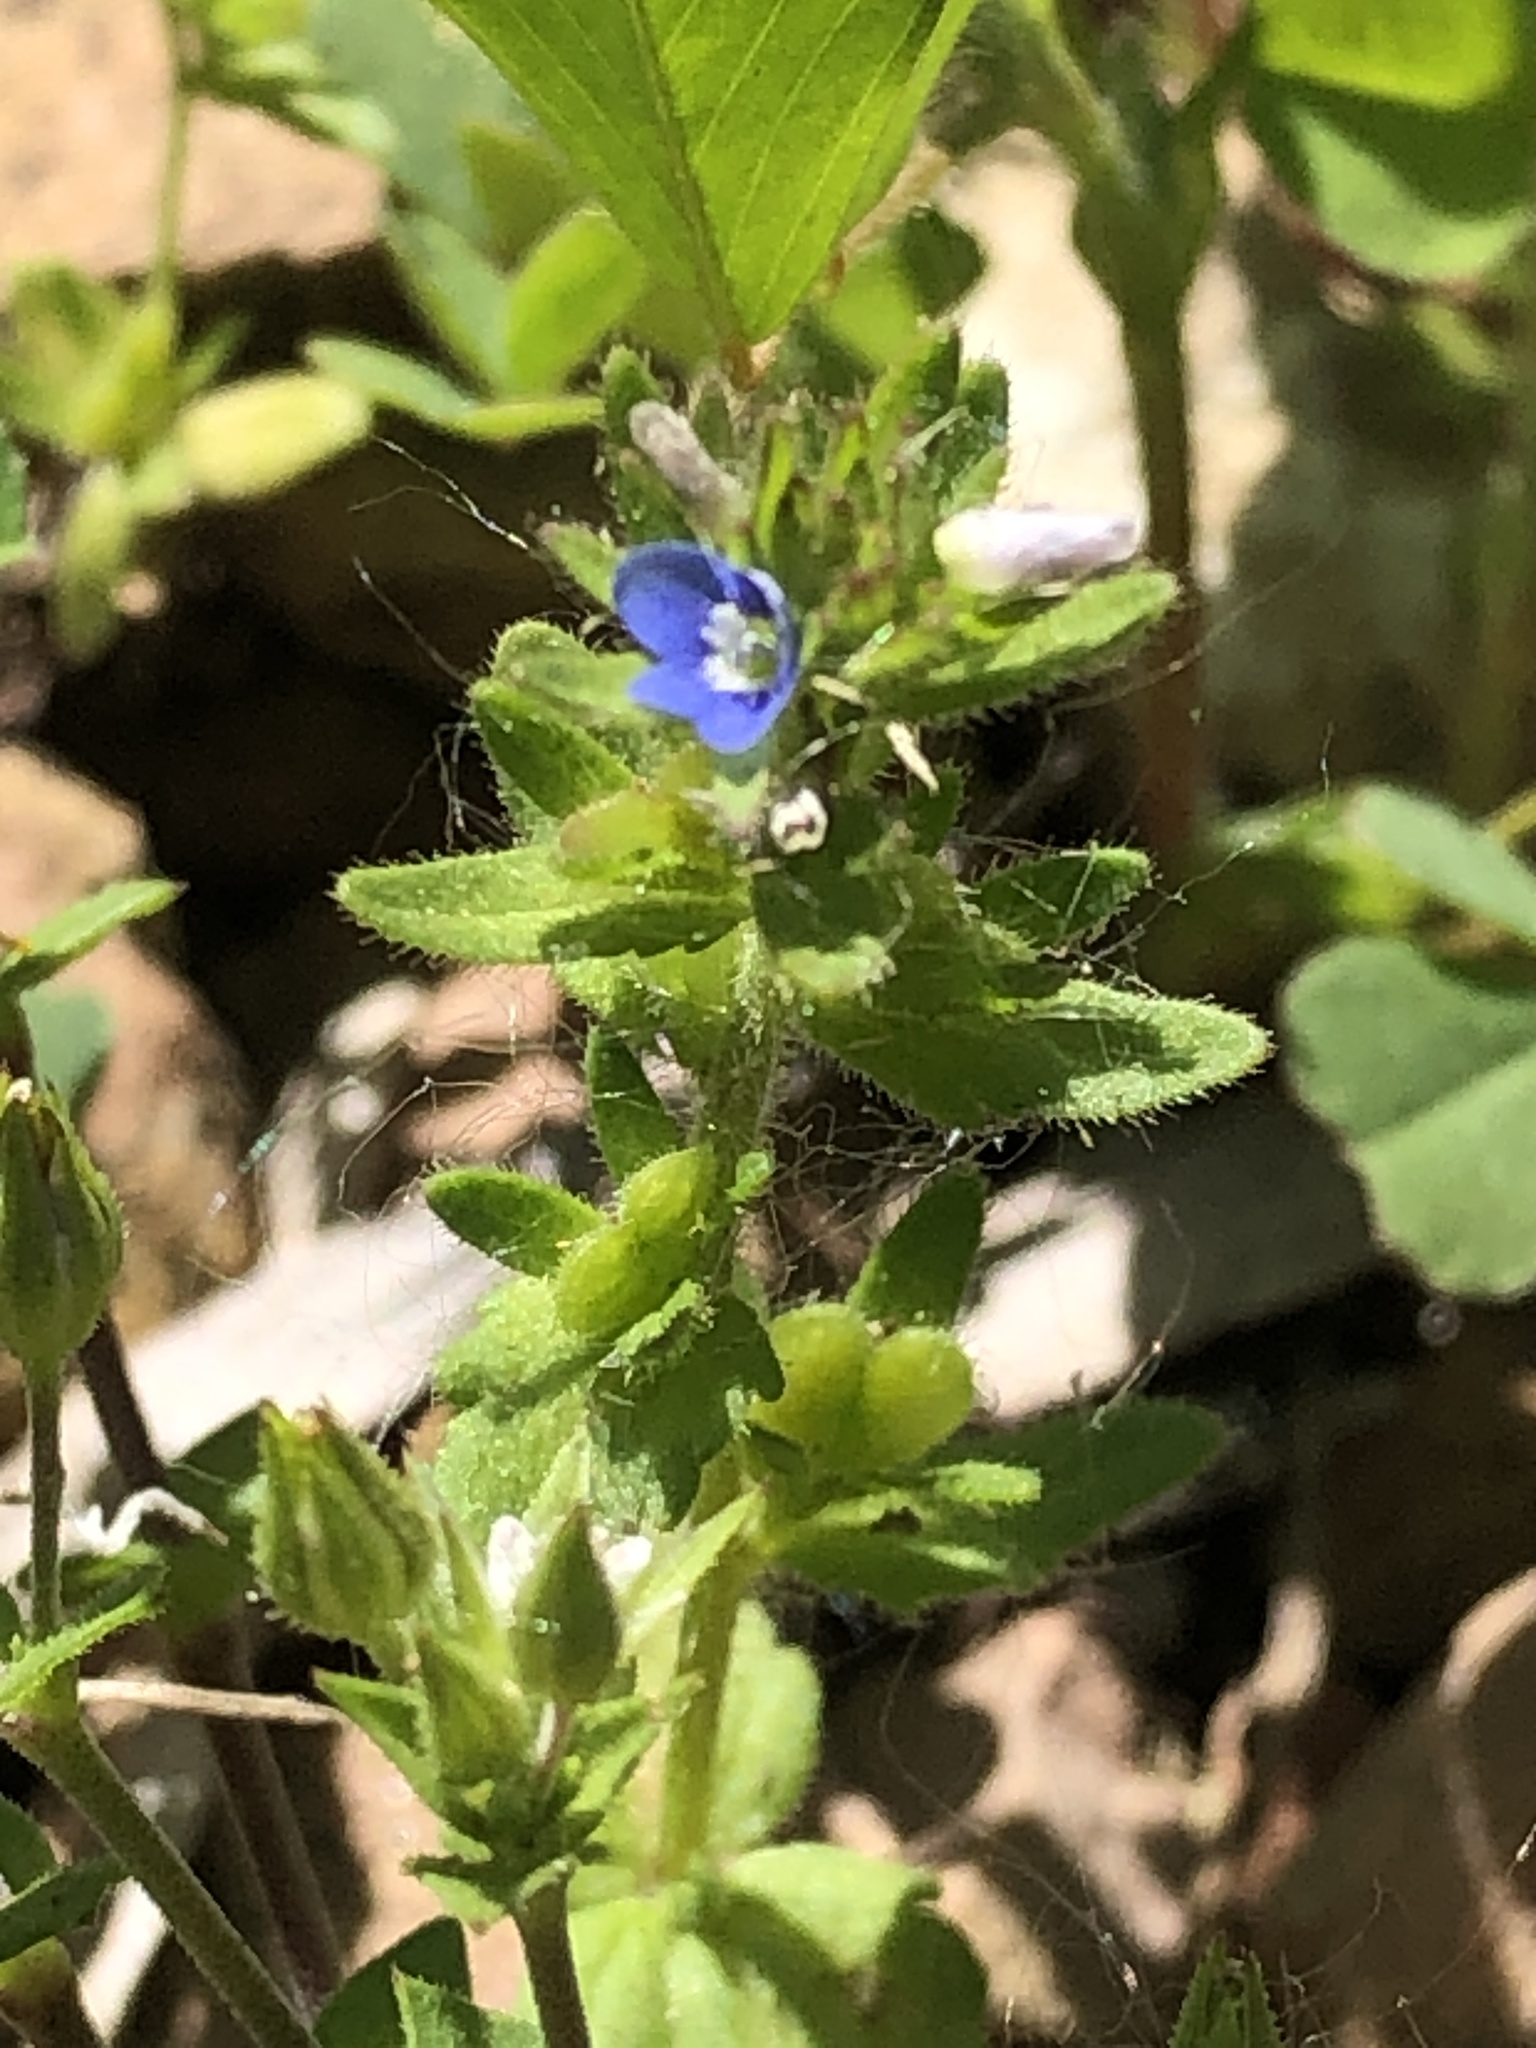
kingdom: Plantae
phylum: Tracheophyta
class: Magnoliopsida
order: Lamiales
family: Plantaginaceae
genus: Veronica
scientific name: Veronica arvensis
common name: Corn speedwell
